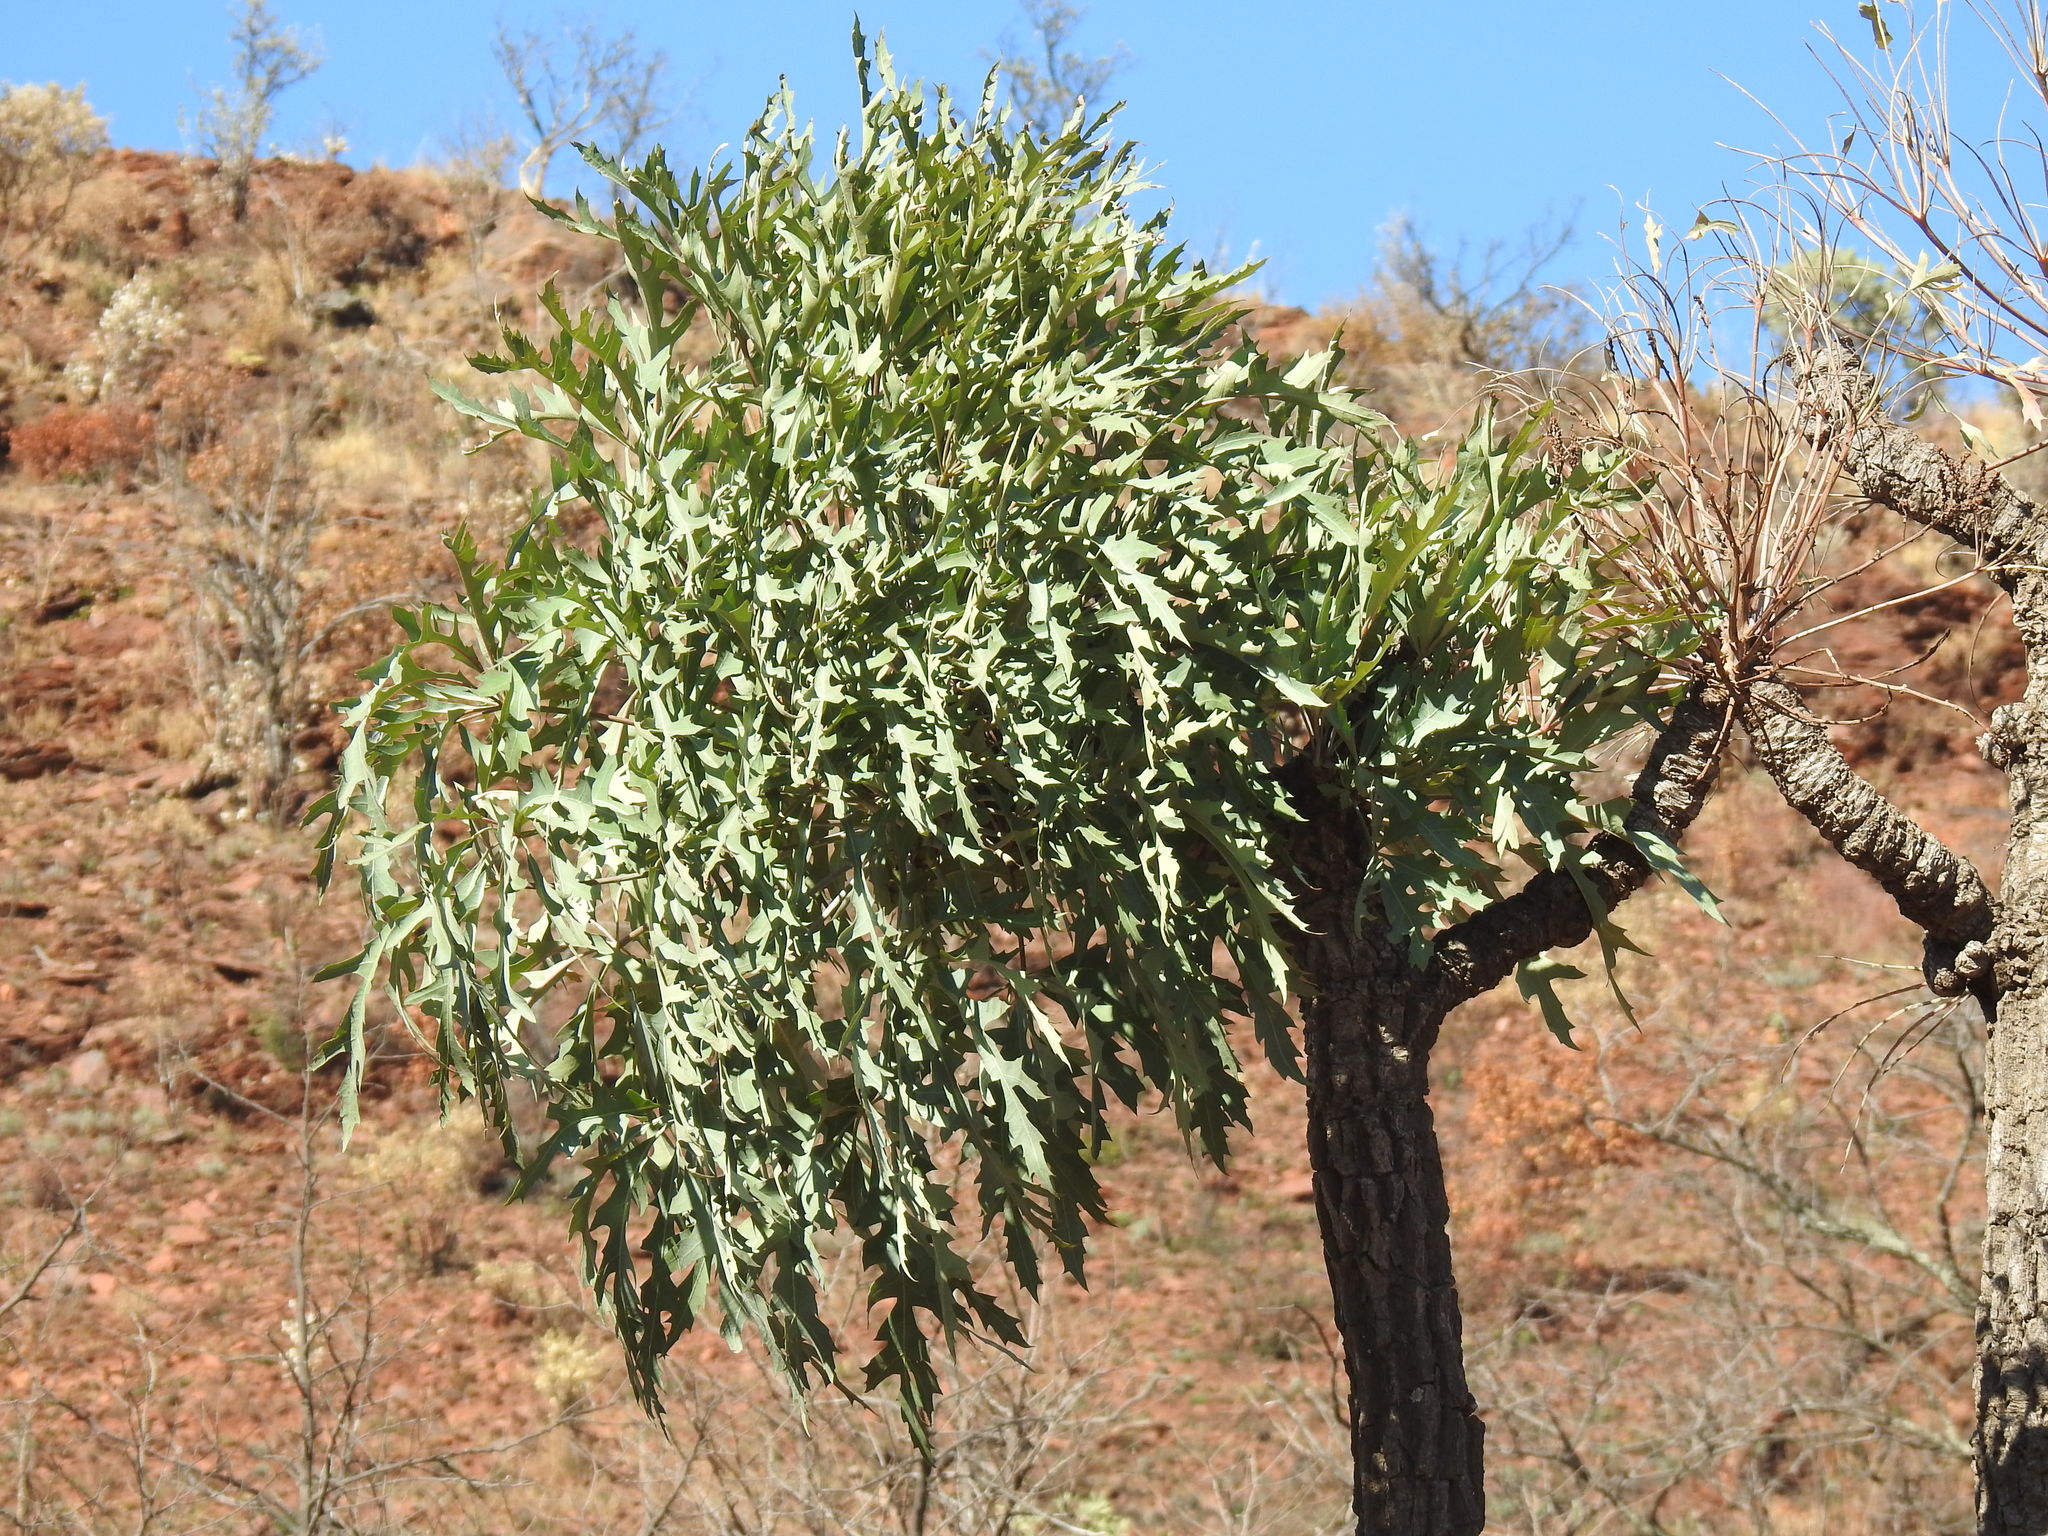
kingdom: Plantae
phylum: Tracheophyta
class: Magnoliopsida
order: Apiales
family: Araliaceae
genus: Cussonia
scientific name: Cussonia paniculata
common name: Cabbagetree
